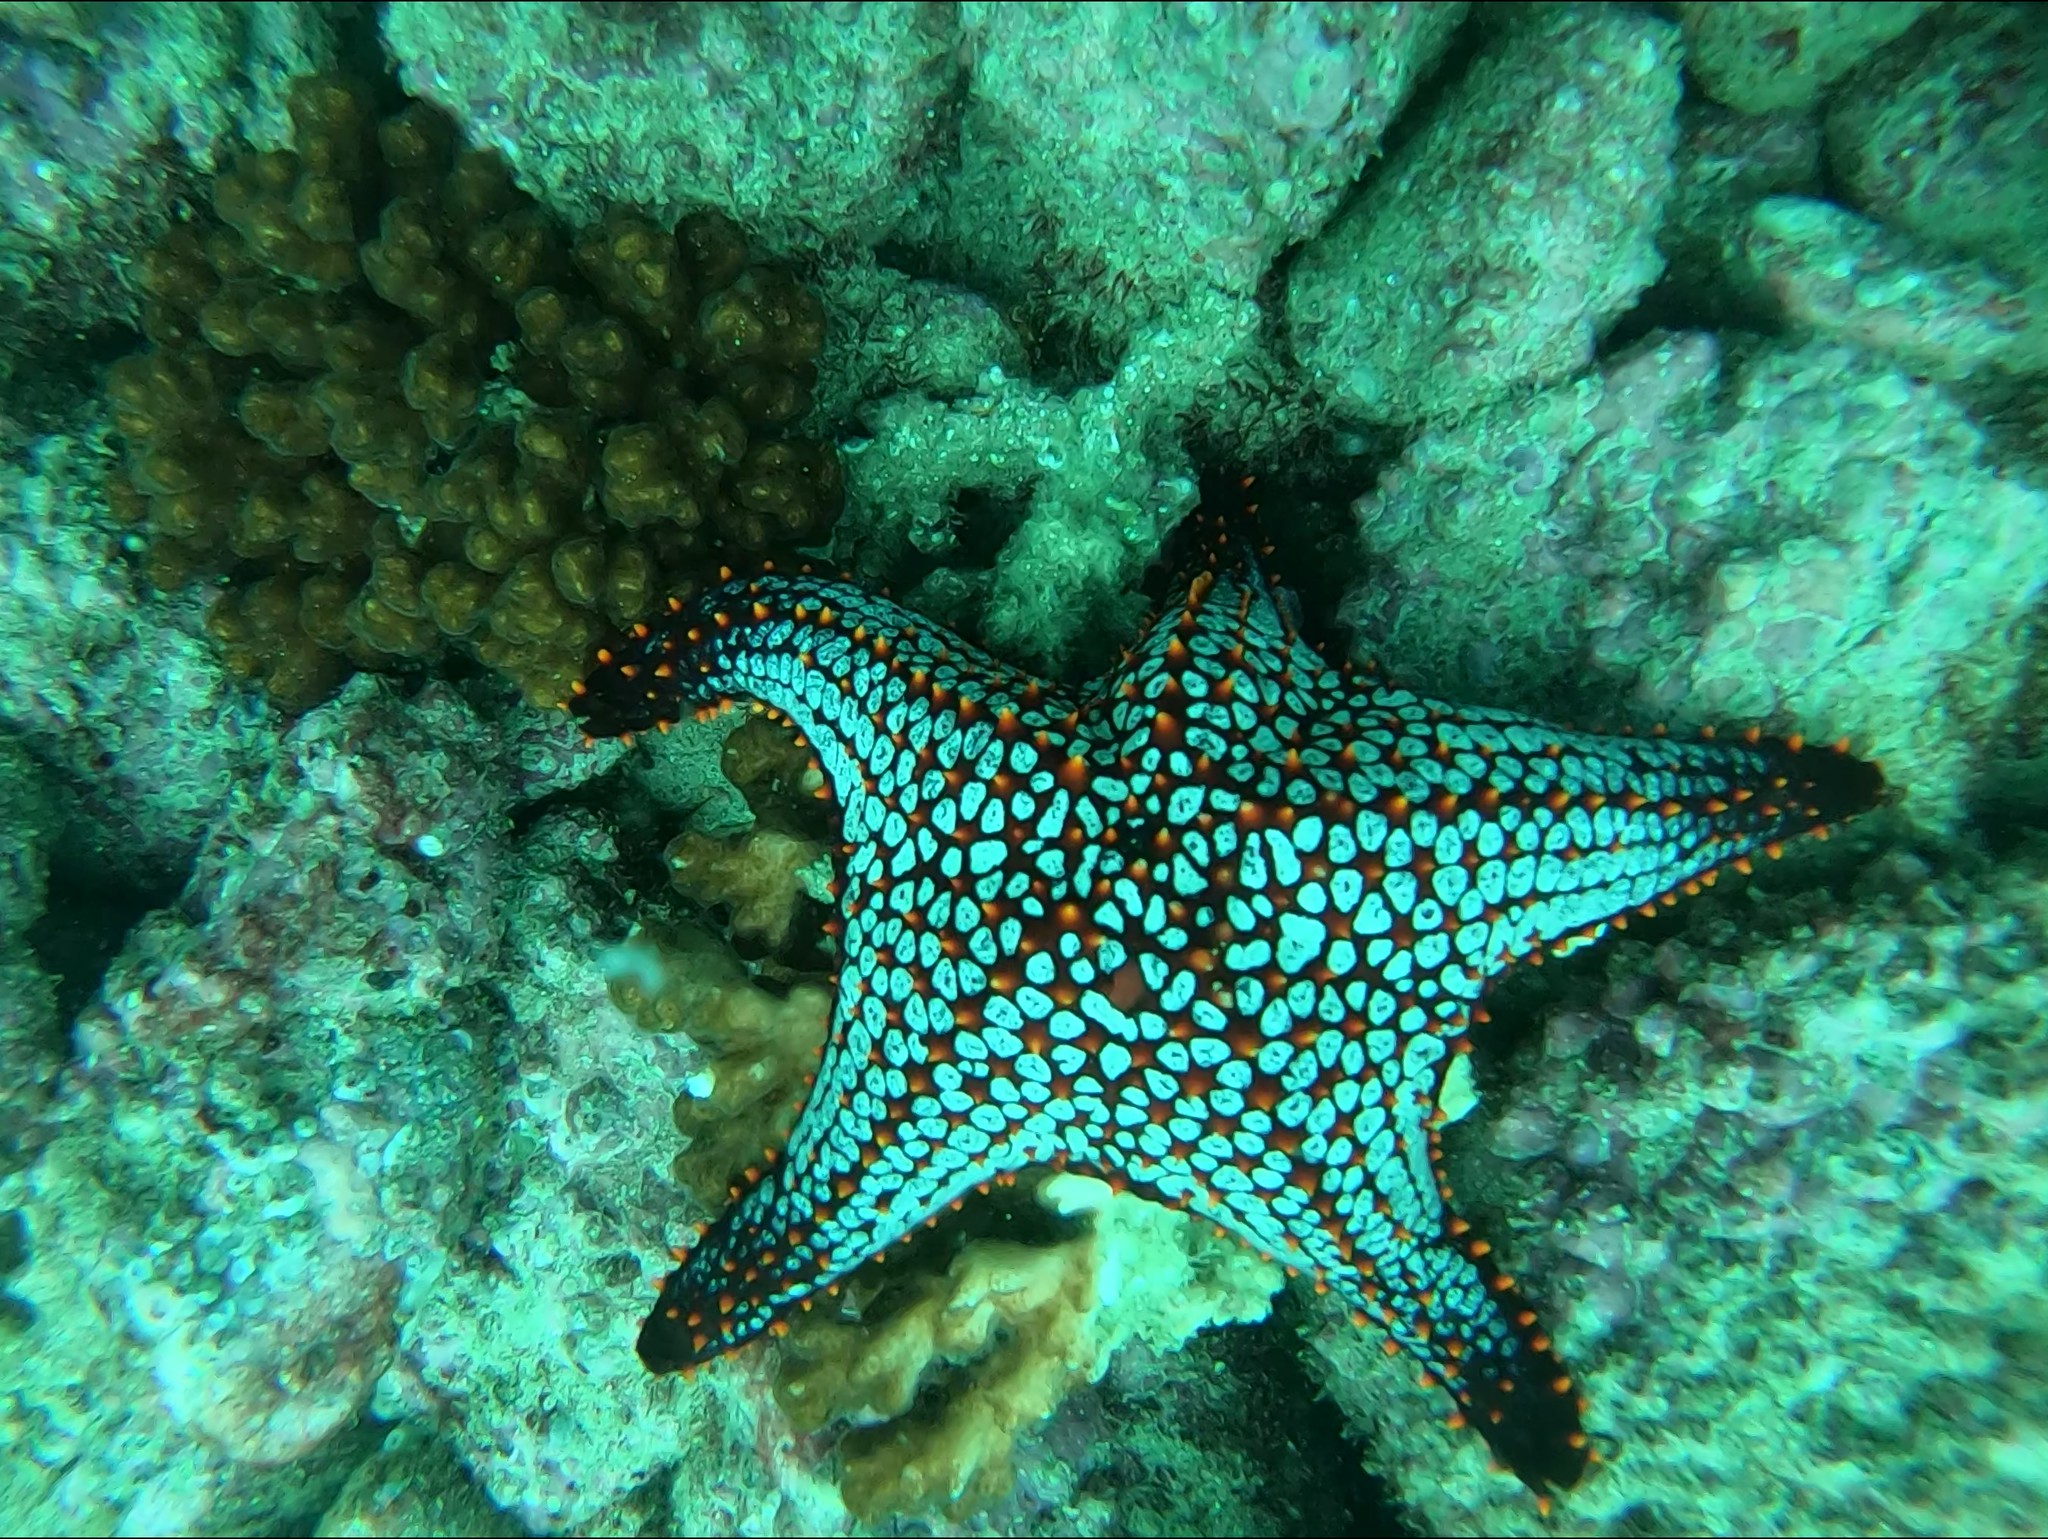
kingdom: Animalia
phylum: Echinodermata
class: Asteroidea
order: Valvatida
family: Oreasteridae
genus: Pentaceraster
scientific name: Pentaceraster cumingi
